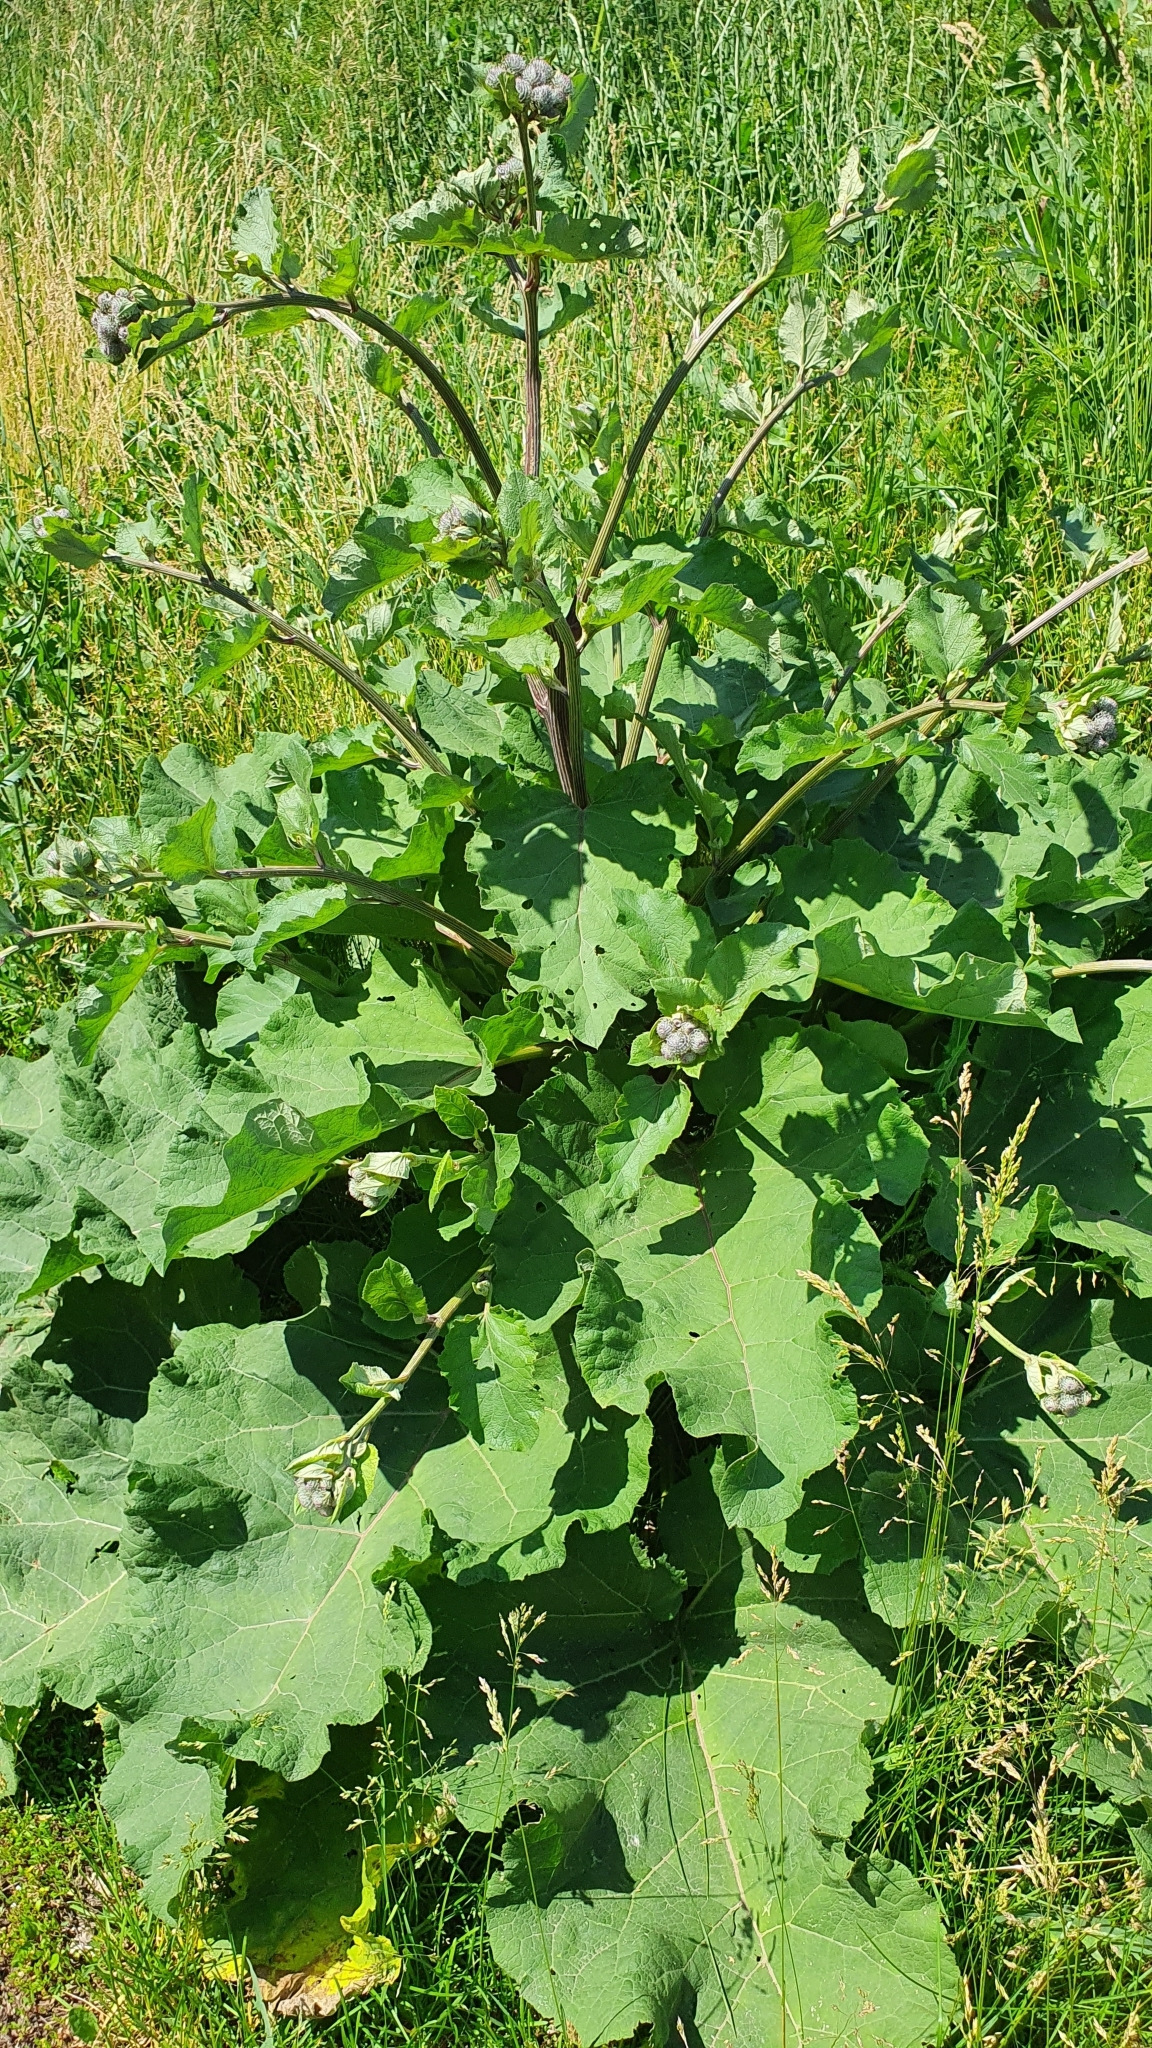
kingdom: Plantae
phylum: Tracheophyta
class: Magnoliopsida
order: Asterales
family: Asteraceae
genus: Arctium
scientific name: Arctium tomentosum
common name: Woolly burdock
